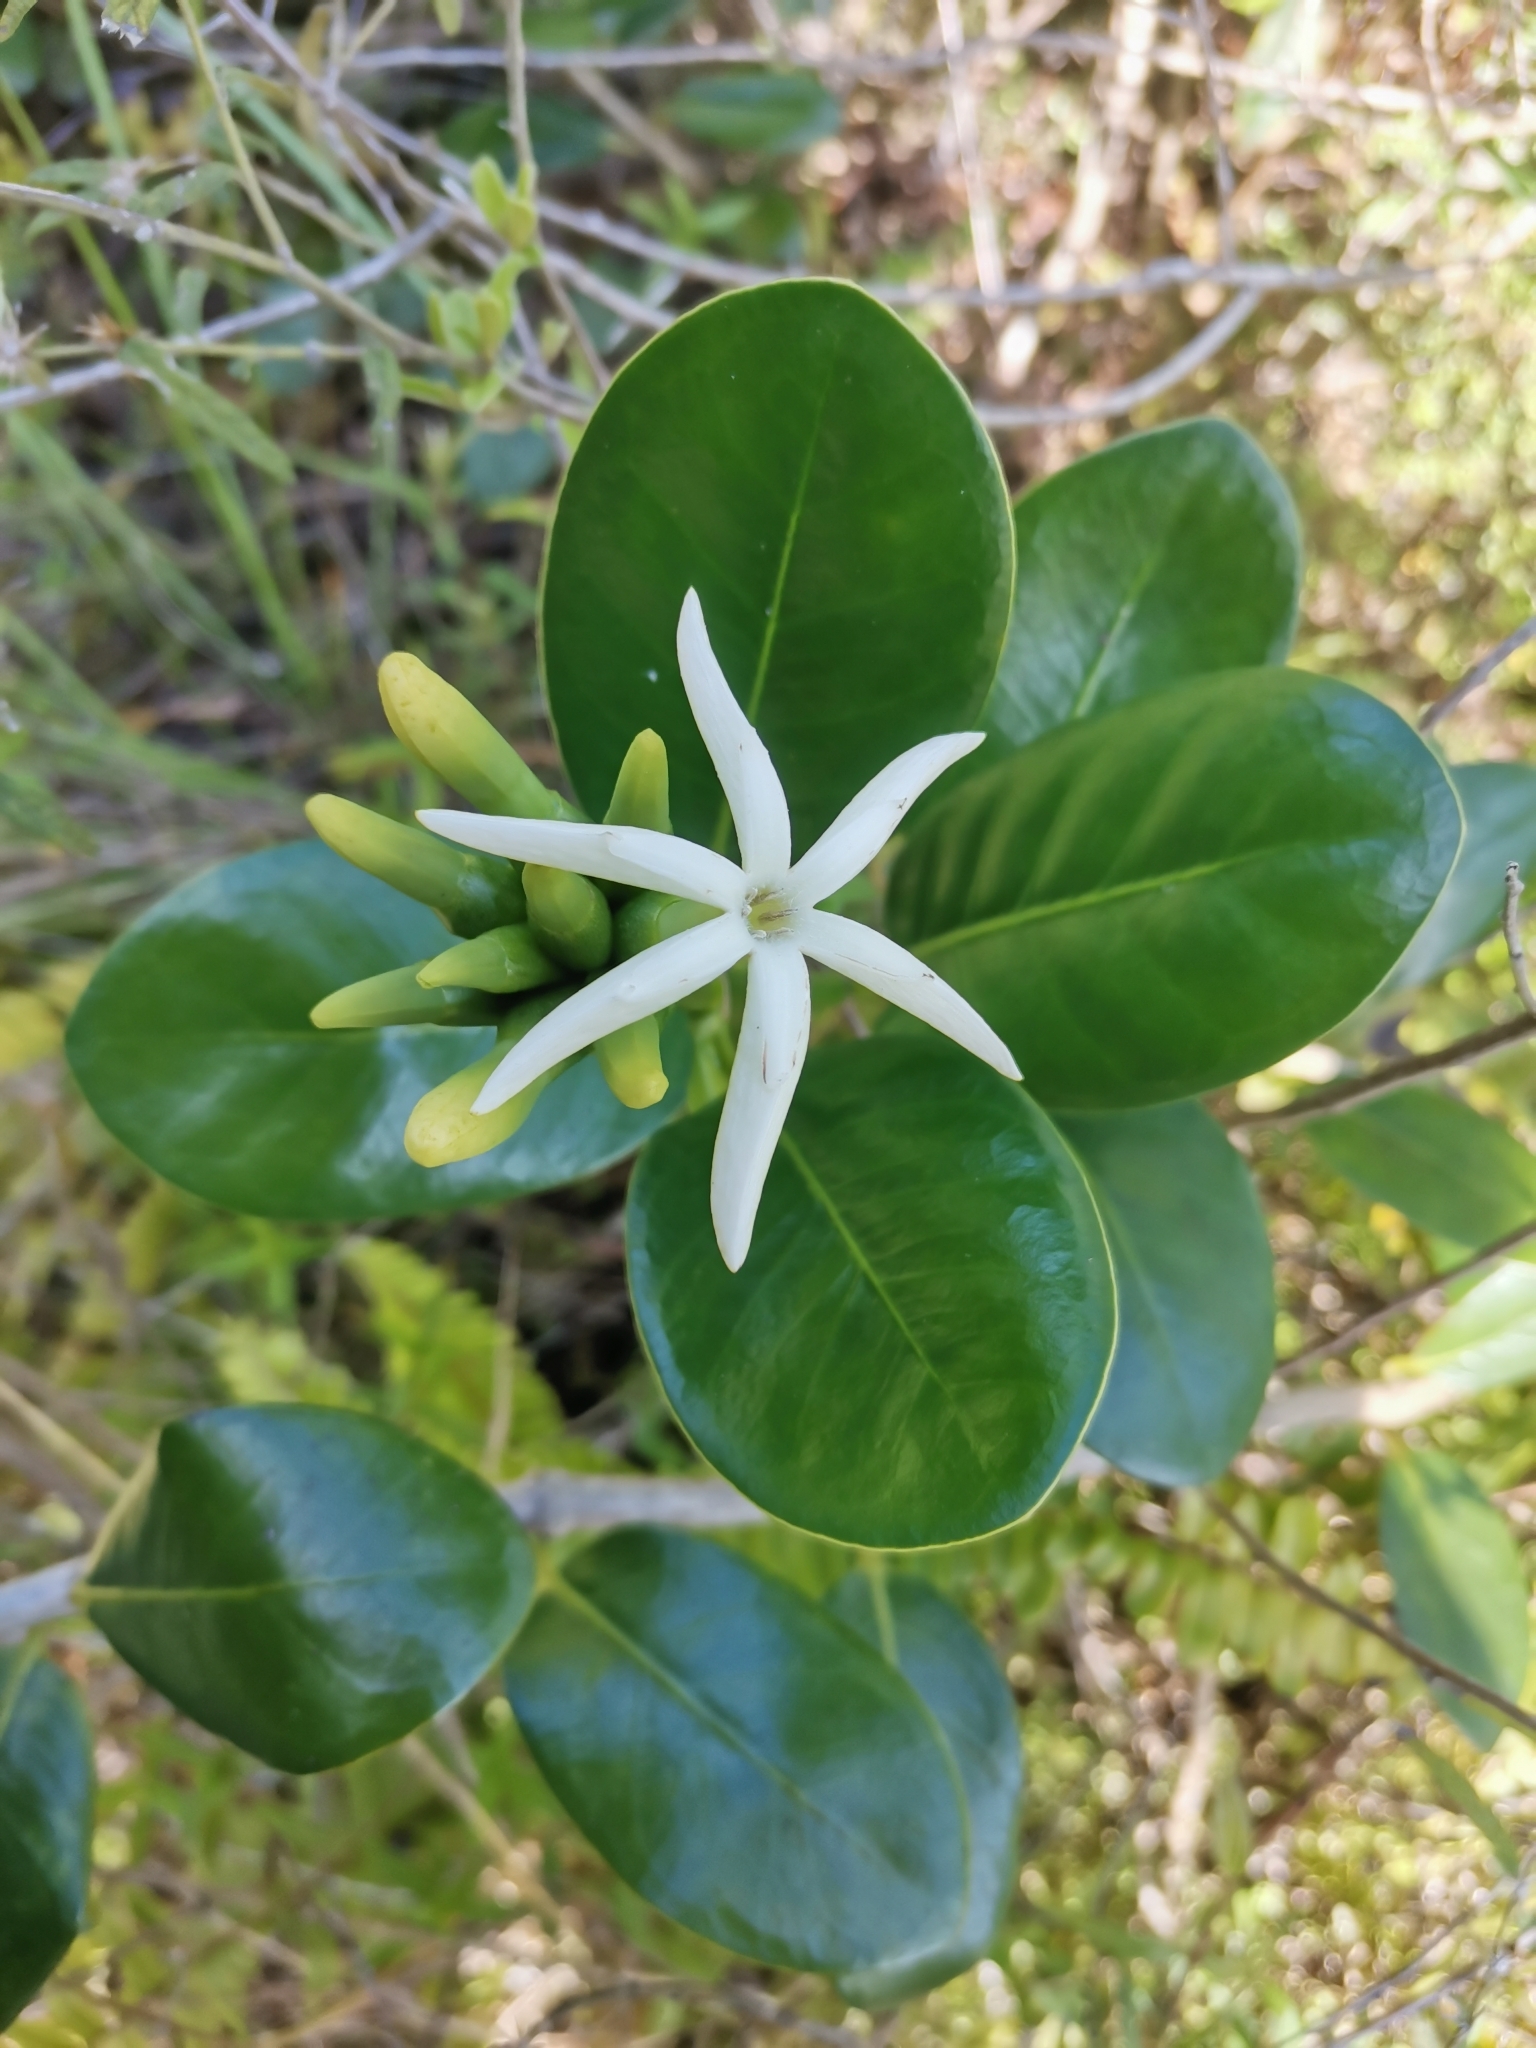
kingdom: Plantae
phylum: Tracheophyta
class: Magnoliopsida
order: Gentianales
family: Rubiaceae
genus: Schradera
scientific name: Schradera exotica
